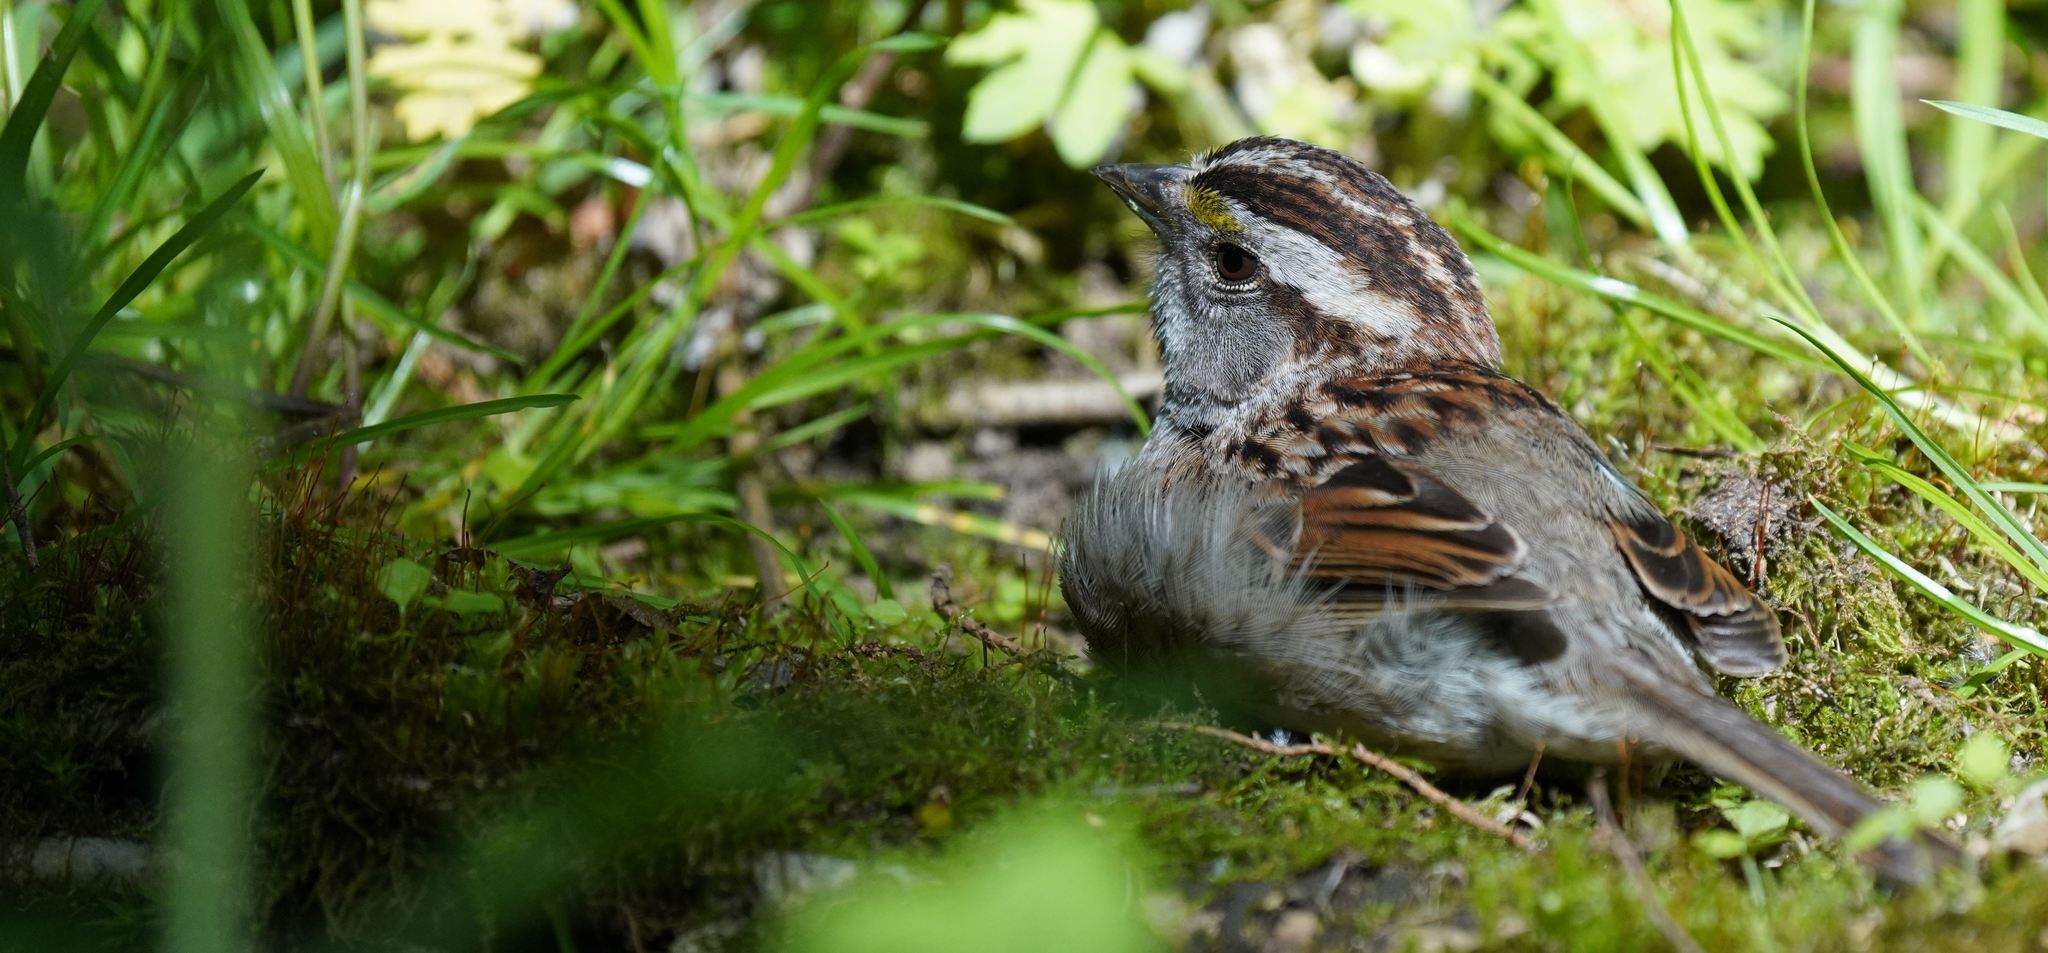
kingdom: Animalia
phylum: Chordata
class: Aves
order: Passeriformes
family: Passerellidae
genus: Zonotrichia
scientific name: Zonotrichia albicollis
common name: White-throated sparrow
